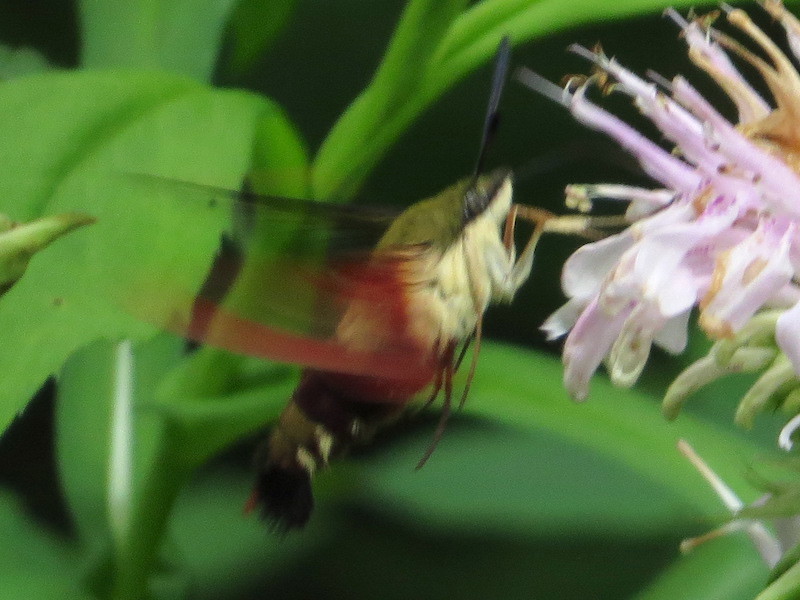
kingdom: Animalia
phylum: Arthropoda
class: Insecta
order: Lepidoptera
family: Sphingidae
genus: Hemaris
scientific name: Hemaris thysbe
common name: Common clear-wing
